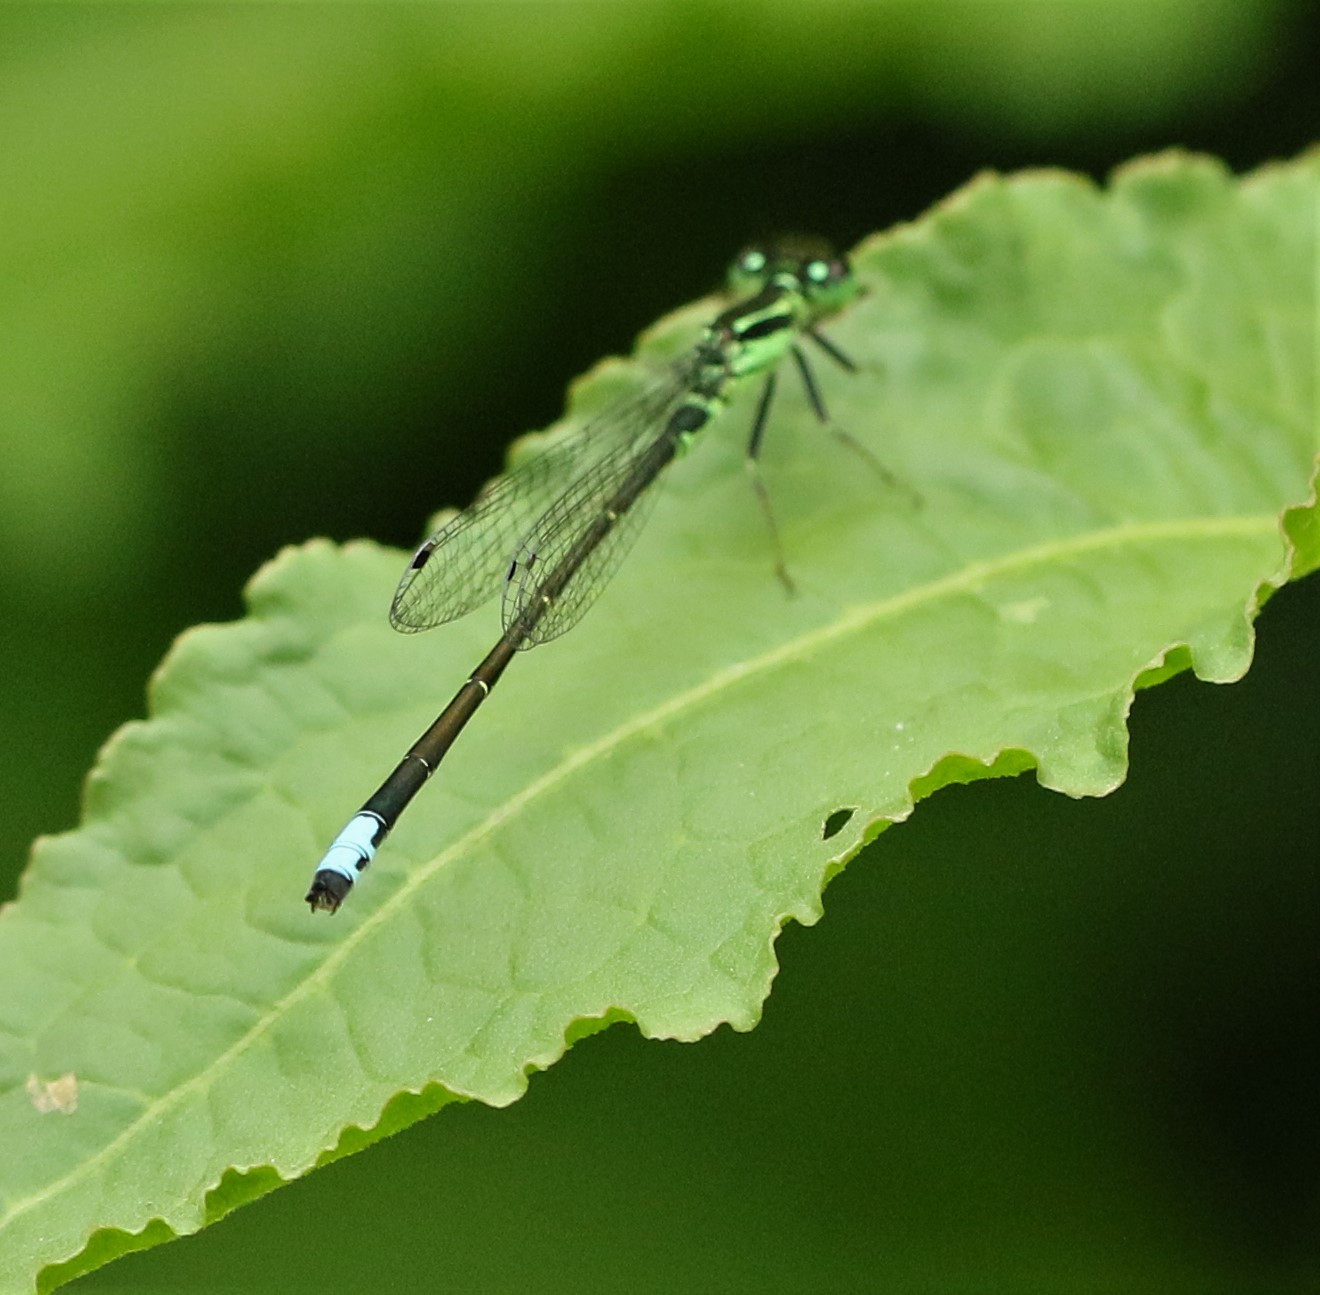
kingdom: Animalia
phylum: Arthropoda
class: Insecta
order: Odonata
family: Coenagrionidae
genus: Ischnura
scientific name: Ischnura verticalis
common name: Eastern forktail
